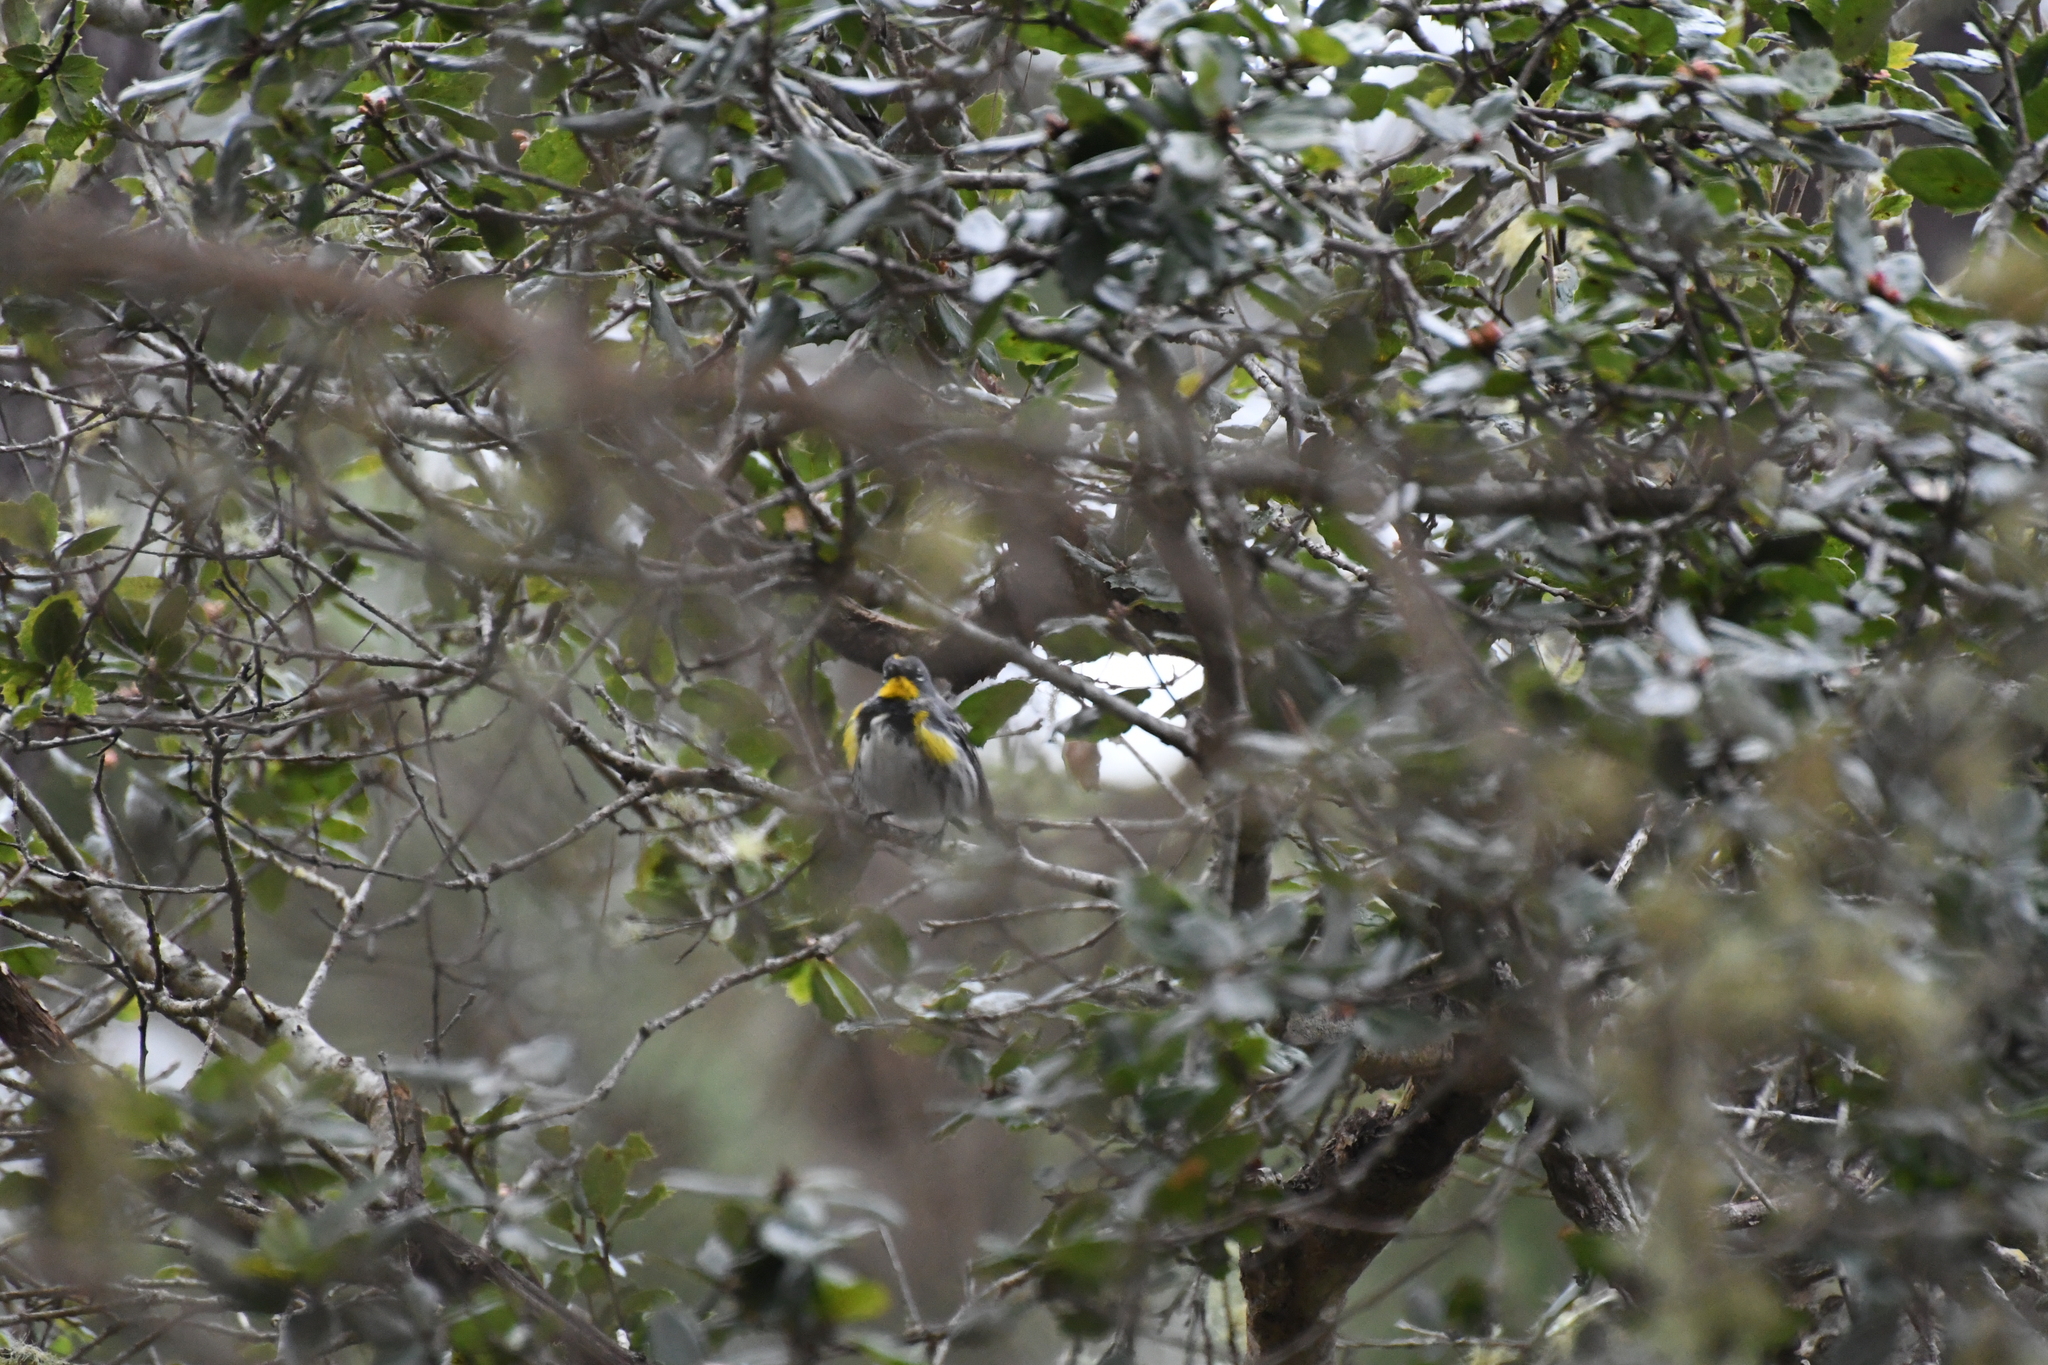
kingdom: Animalia
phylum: Chordata
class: Aves
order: Passeriformes
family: Parulidae
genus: Setophaga
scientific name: Setophaga auduboni
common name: Audubon's warbler
